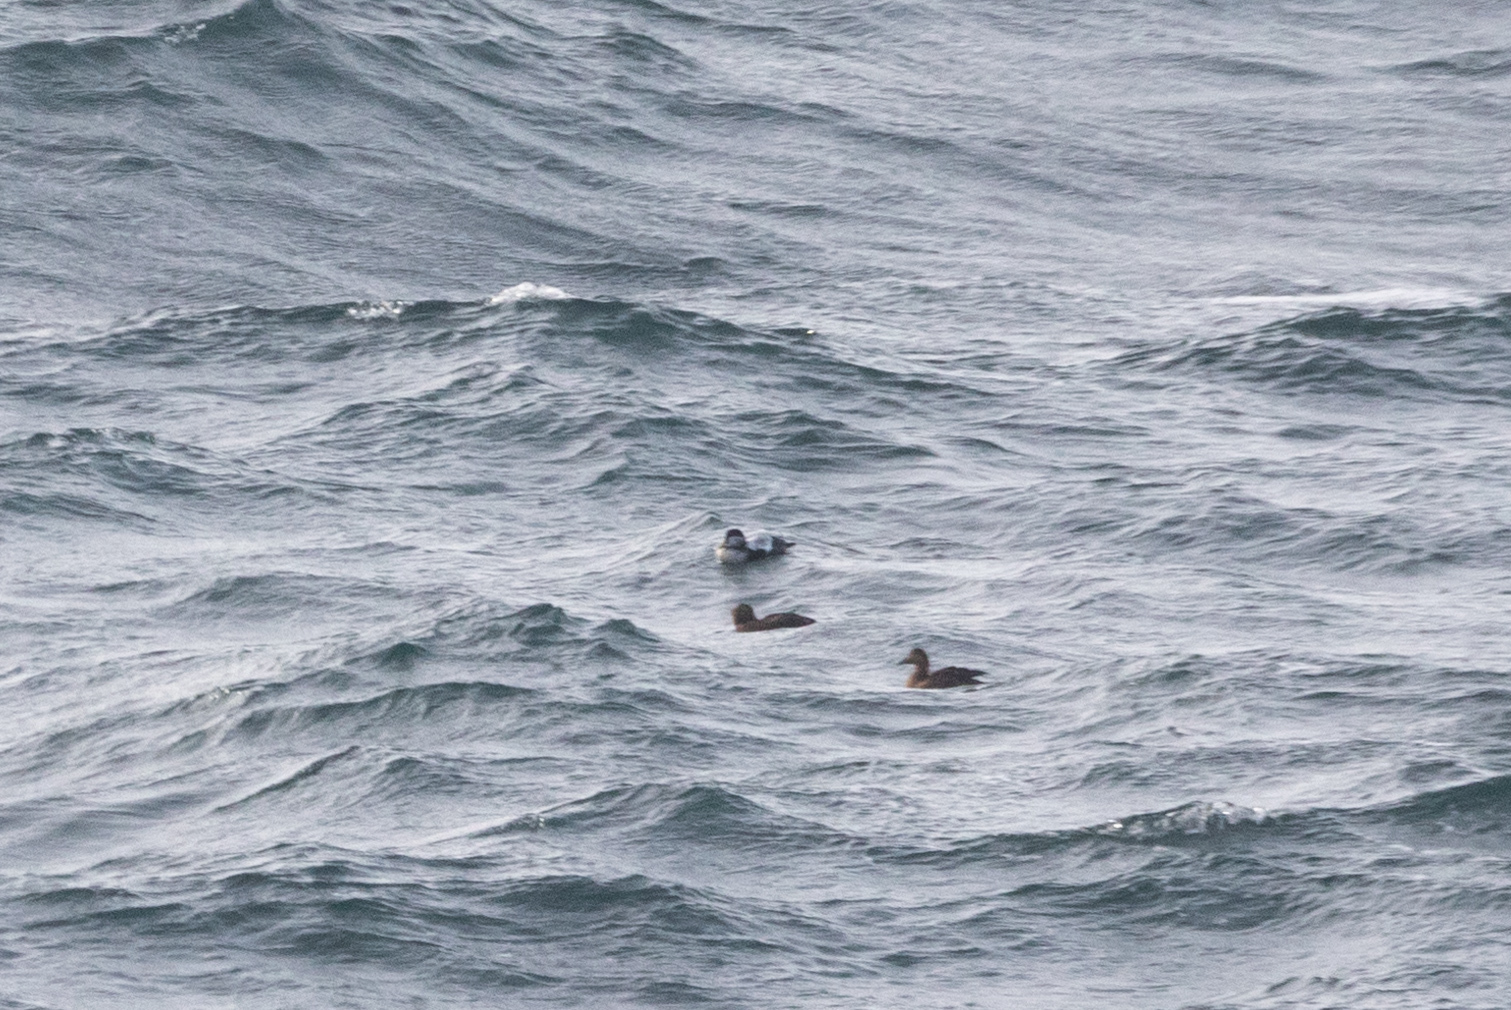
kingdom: Animalia
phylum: Chordata
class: Aves
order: Anseriformes
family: Anatidae
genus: Somateria
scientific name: Somateria mollissima
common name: Common eider
